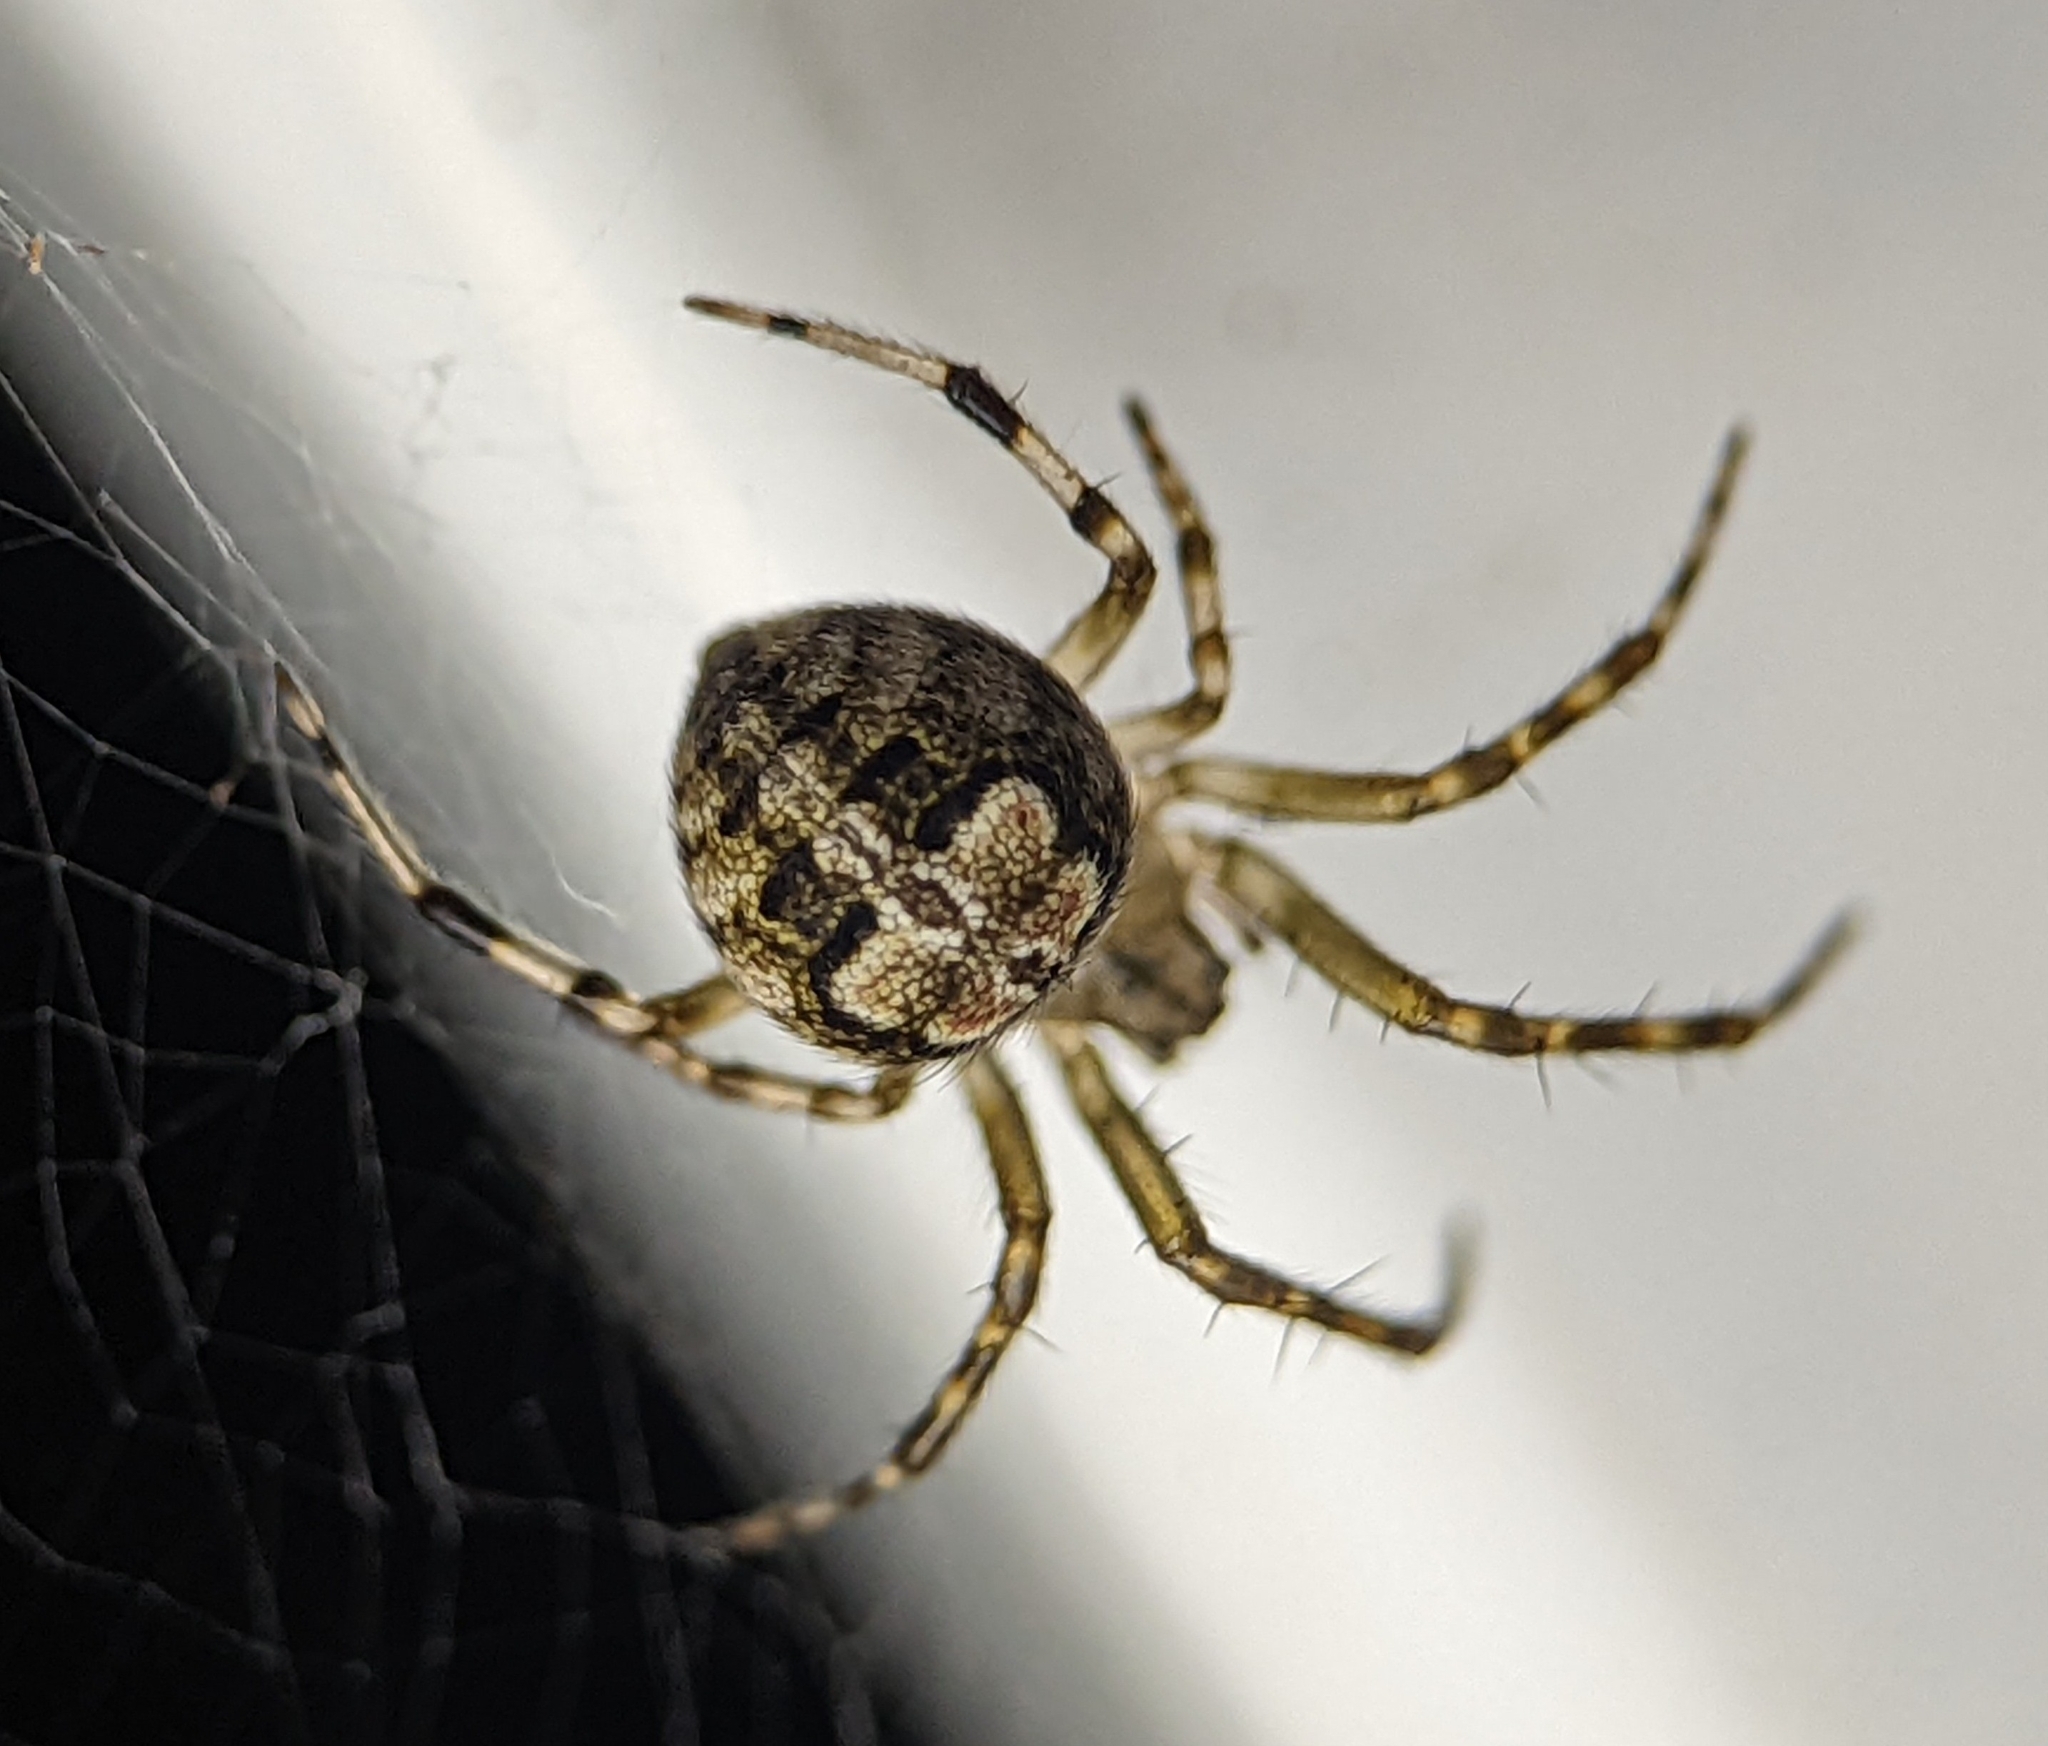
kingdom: Animalia
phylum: Arthropoda
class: Arachnida
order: Araneae
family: Araneidae
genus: Araneus
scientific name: Araneus pegnia
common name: Orb weavers
